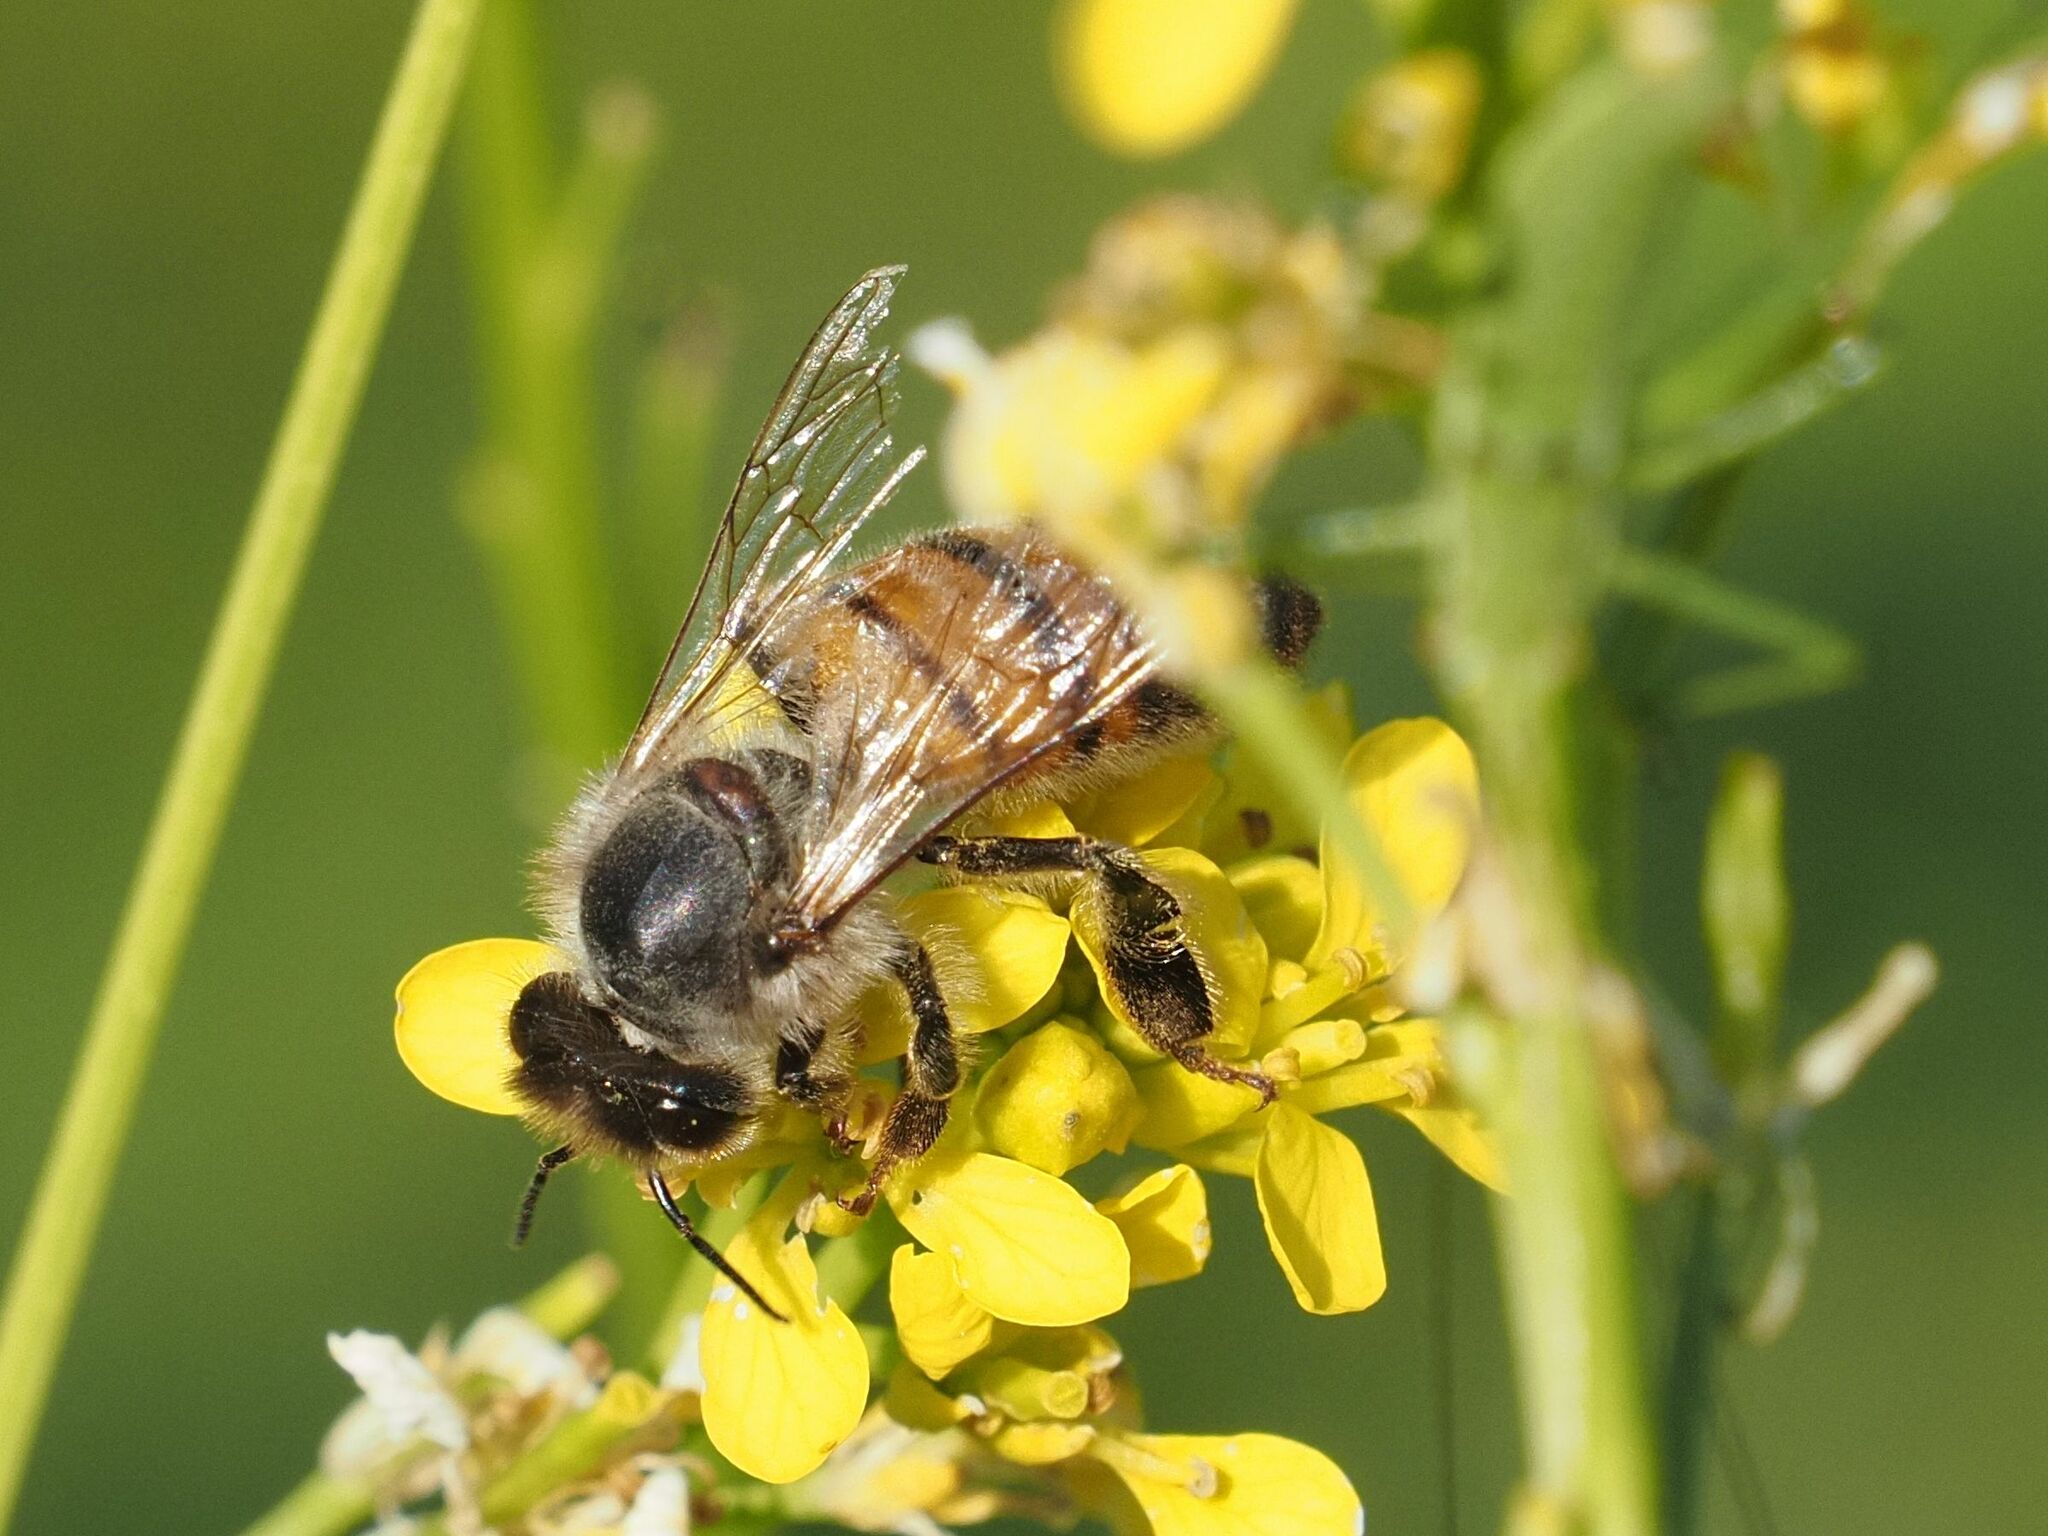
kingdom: Animalia
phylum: Arthropoda
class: Insecta
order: Hymenoptera
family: Apidae
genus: Apis
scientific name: Apis mellifera
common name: Honey bee
